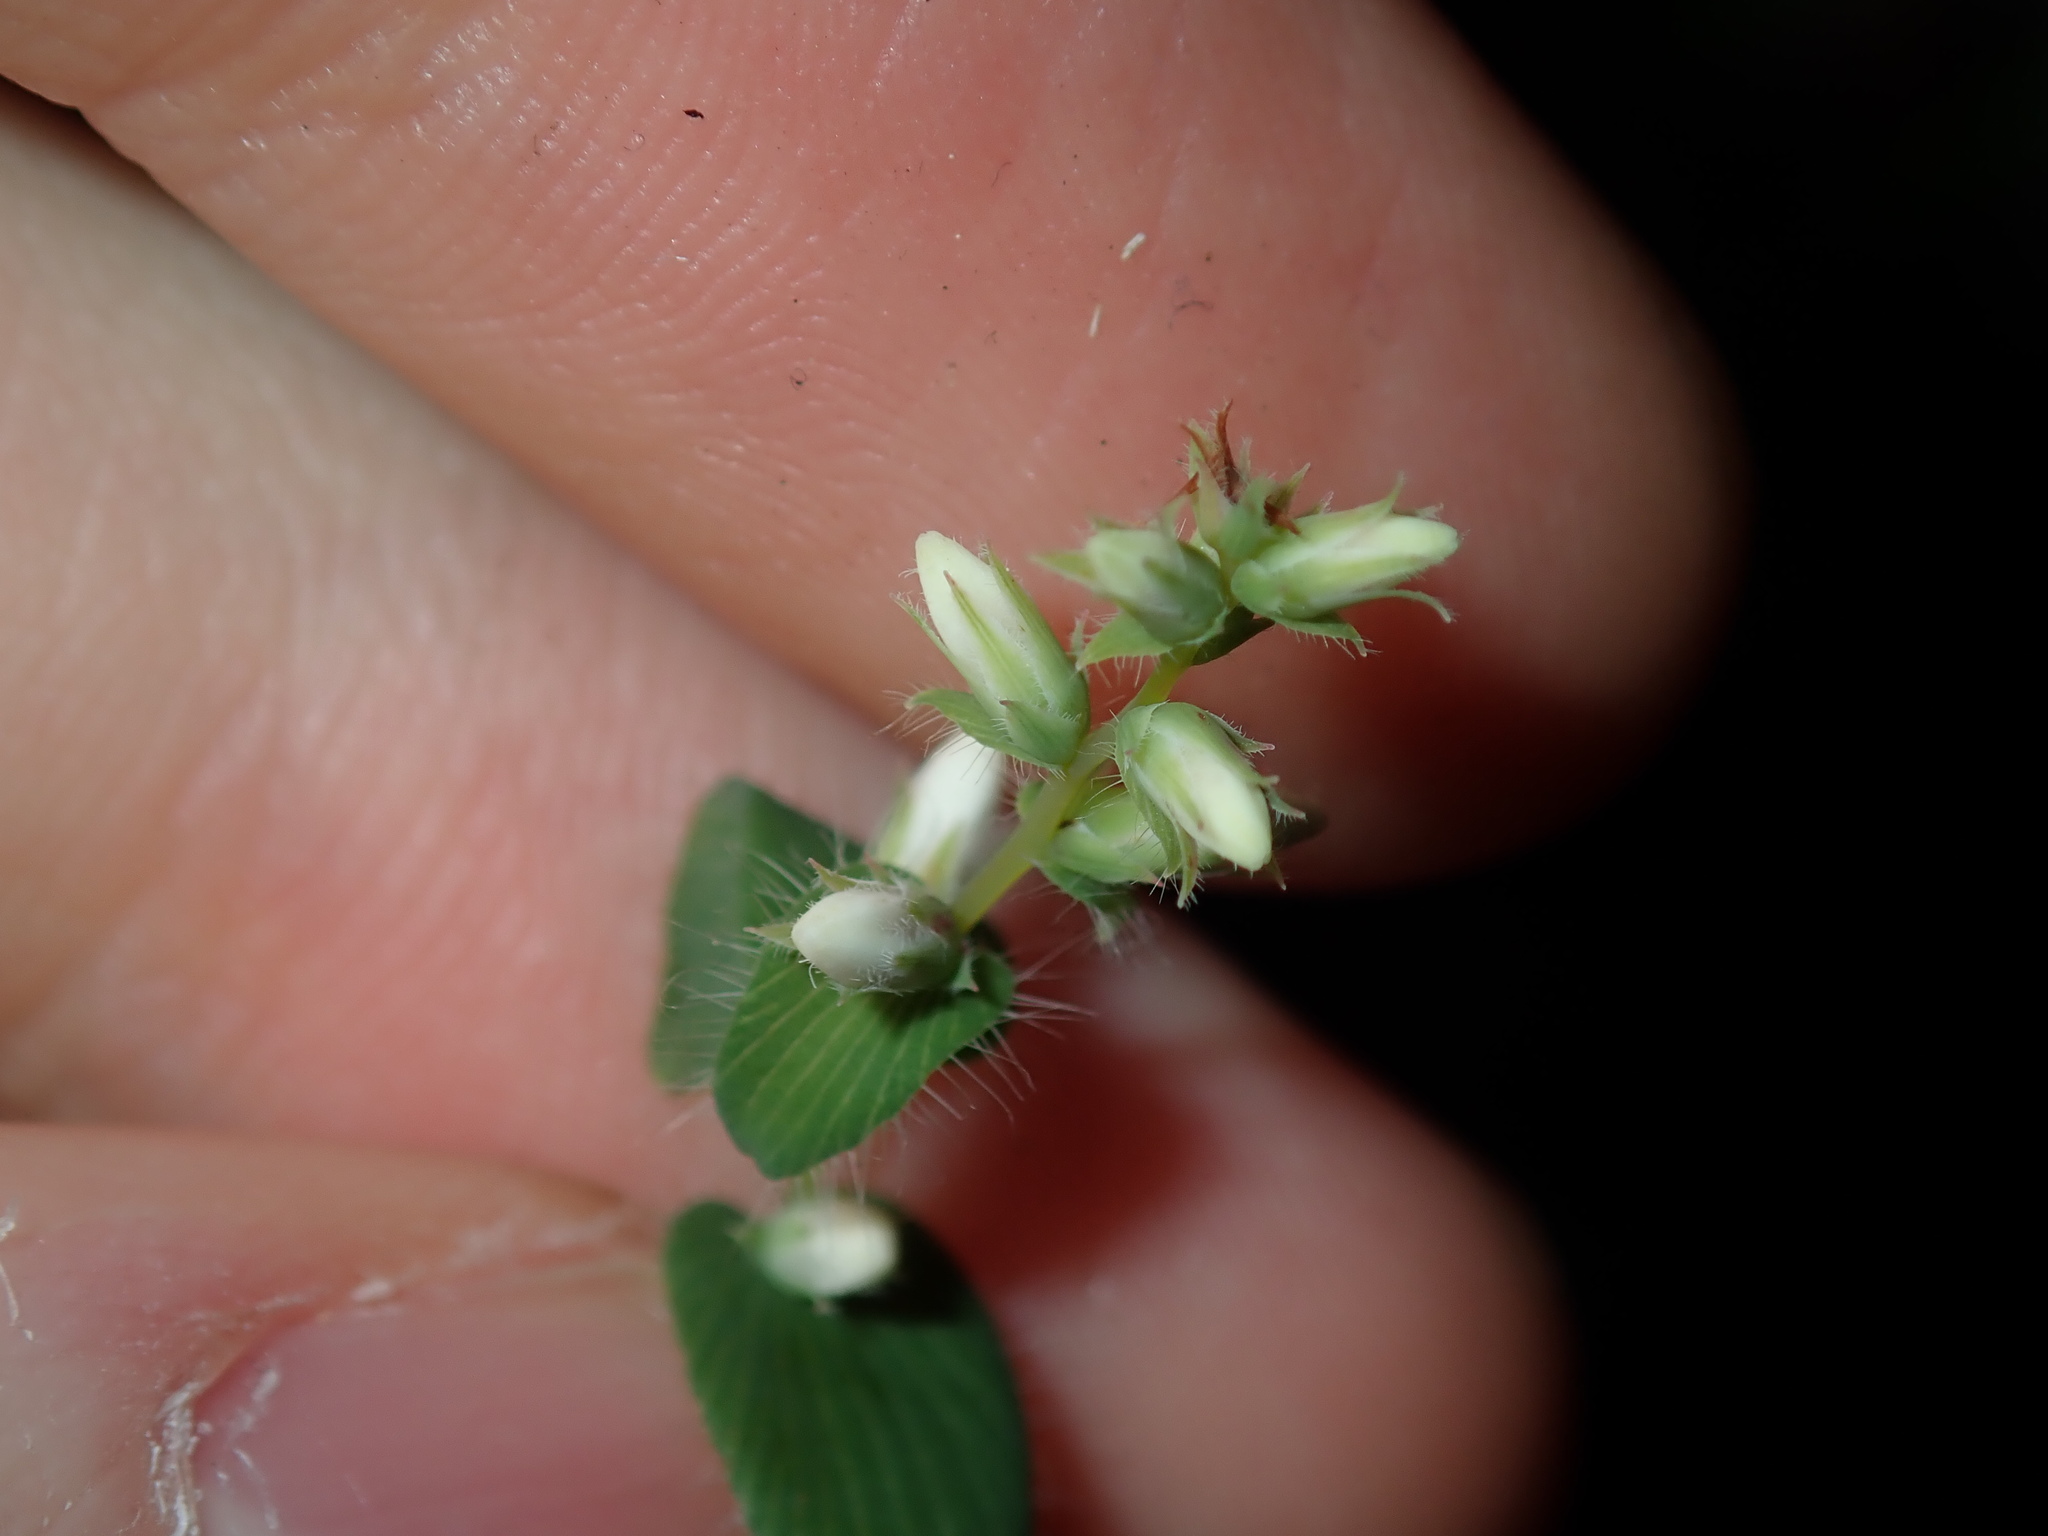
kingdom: Plantae
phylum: Tracheophyta
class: Magnoliopsida
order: Ericales
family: Ericaceae
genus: Leucopogon
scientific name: Leucopogon amplexicaulis
